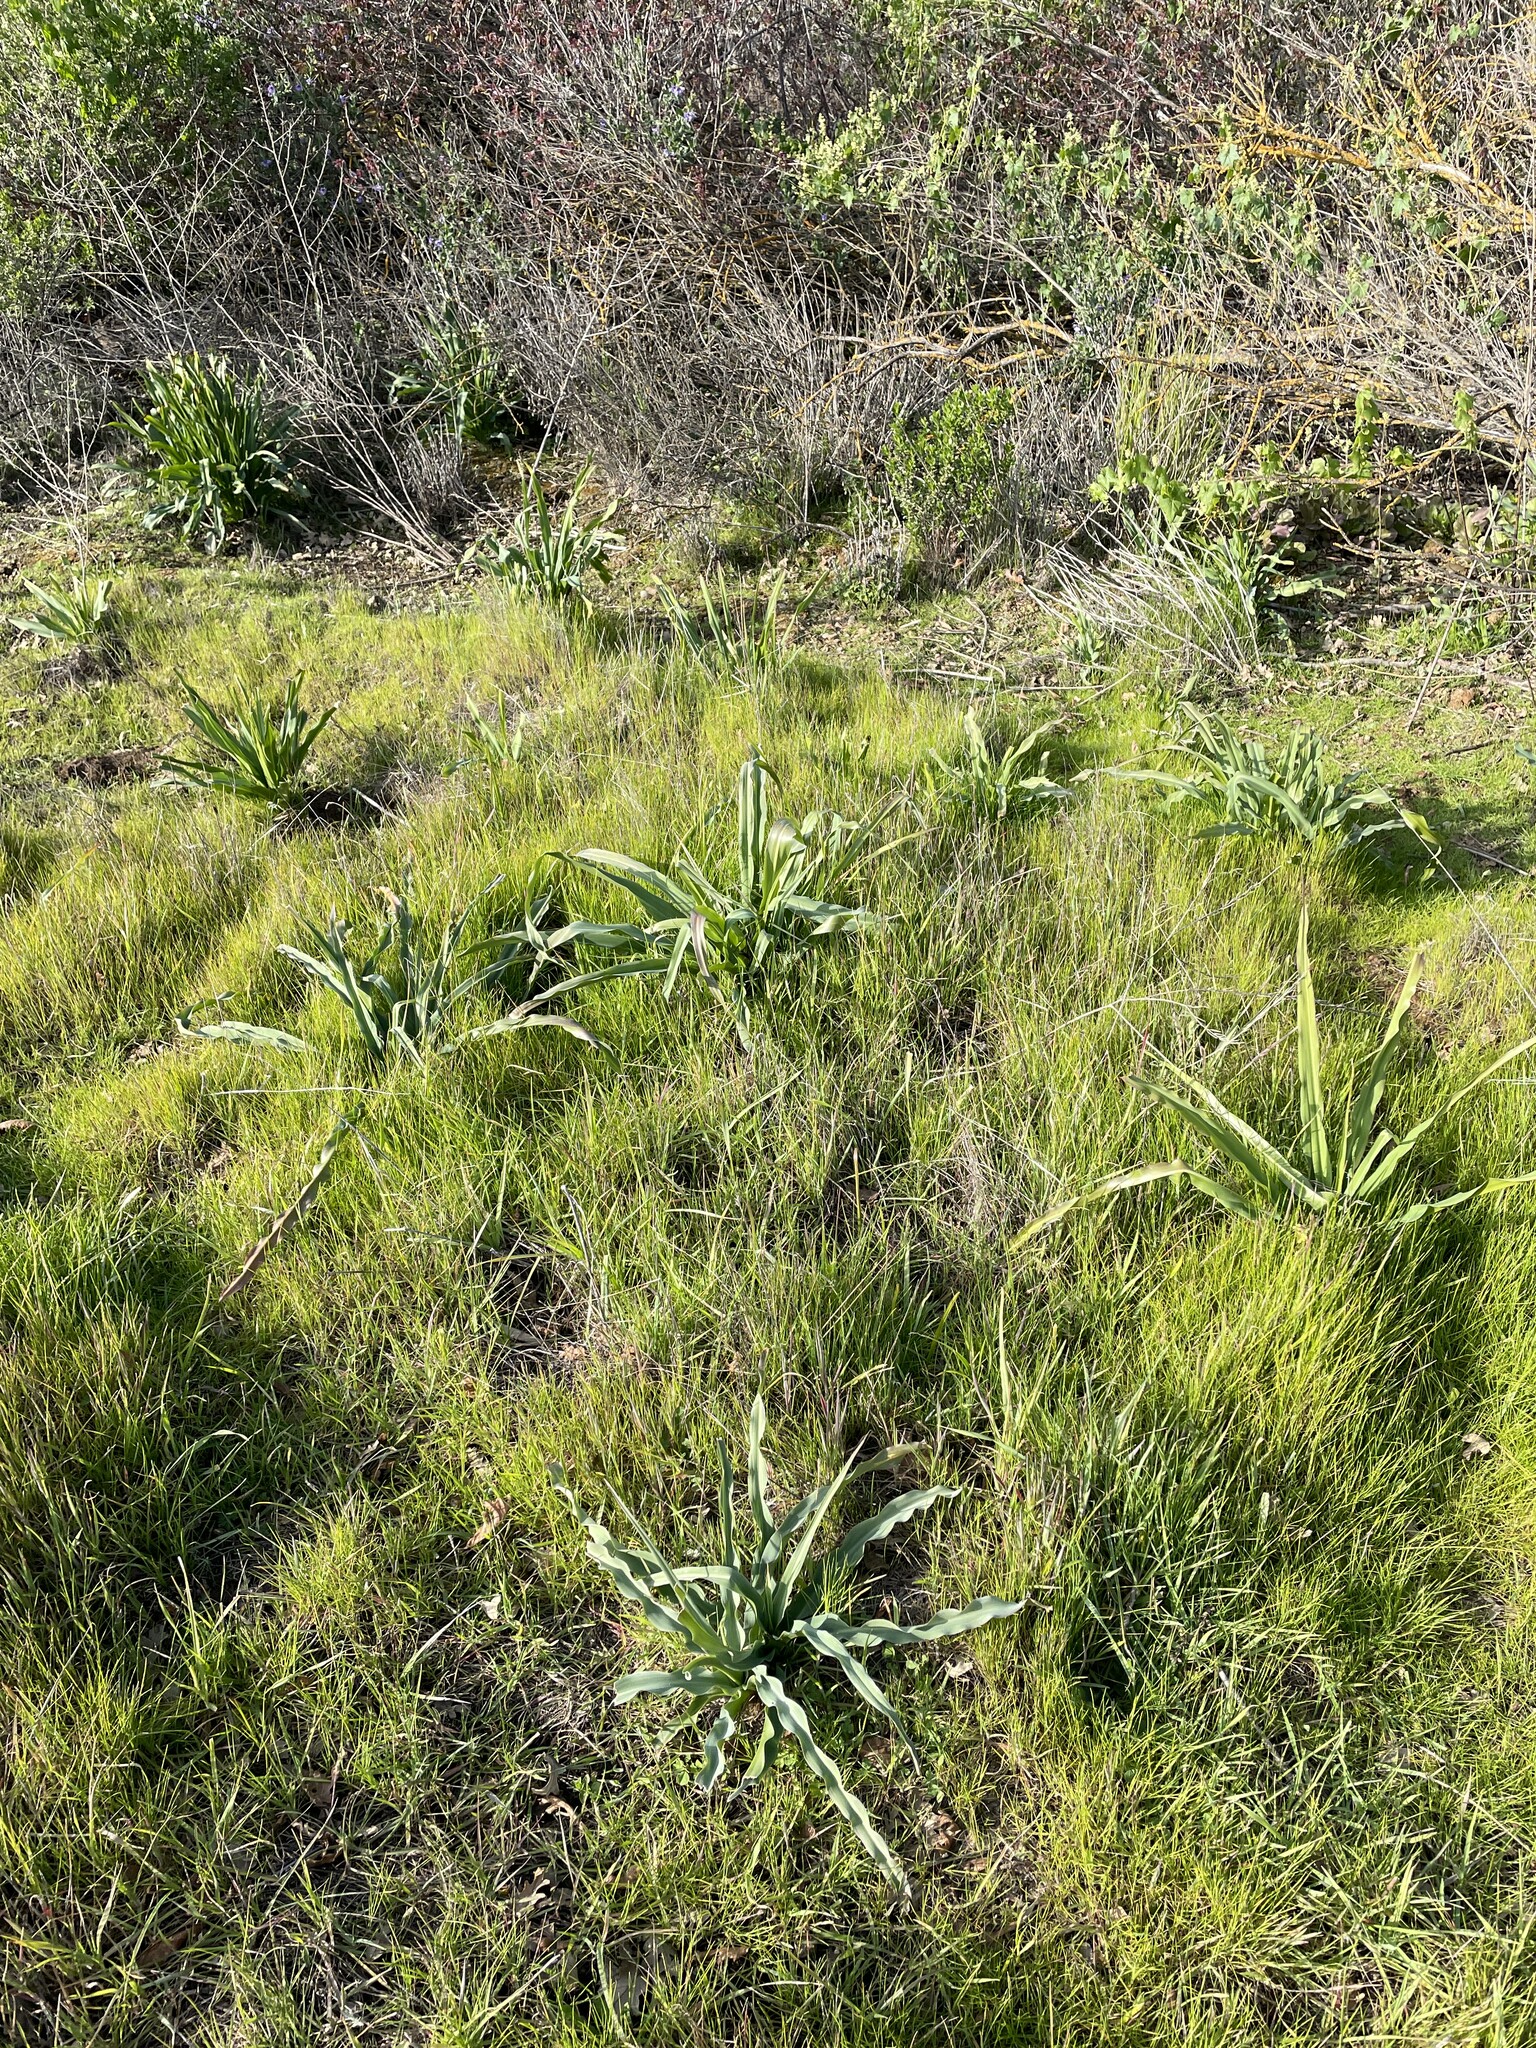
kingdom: Plantae
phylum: Tracheophyta
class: Liliopsida
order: Asparagales
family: Asparagaceae
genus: Chlorogalum
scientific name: Chlorogalum pomeridianum
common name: Amole
